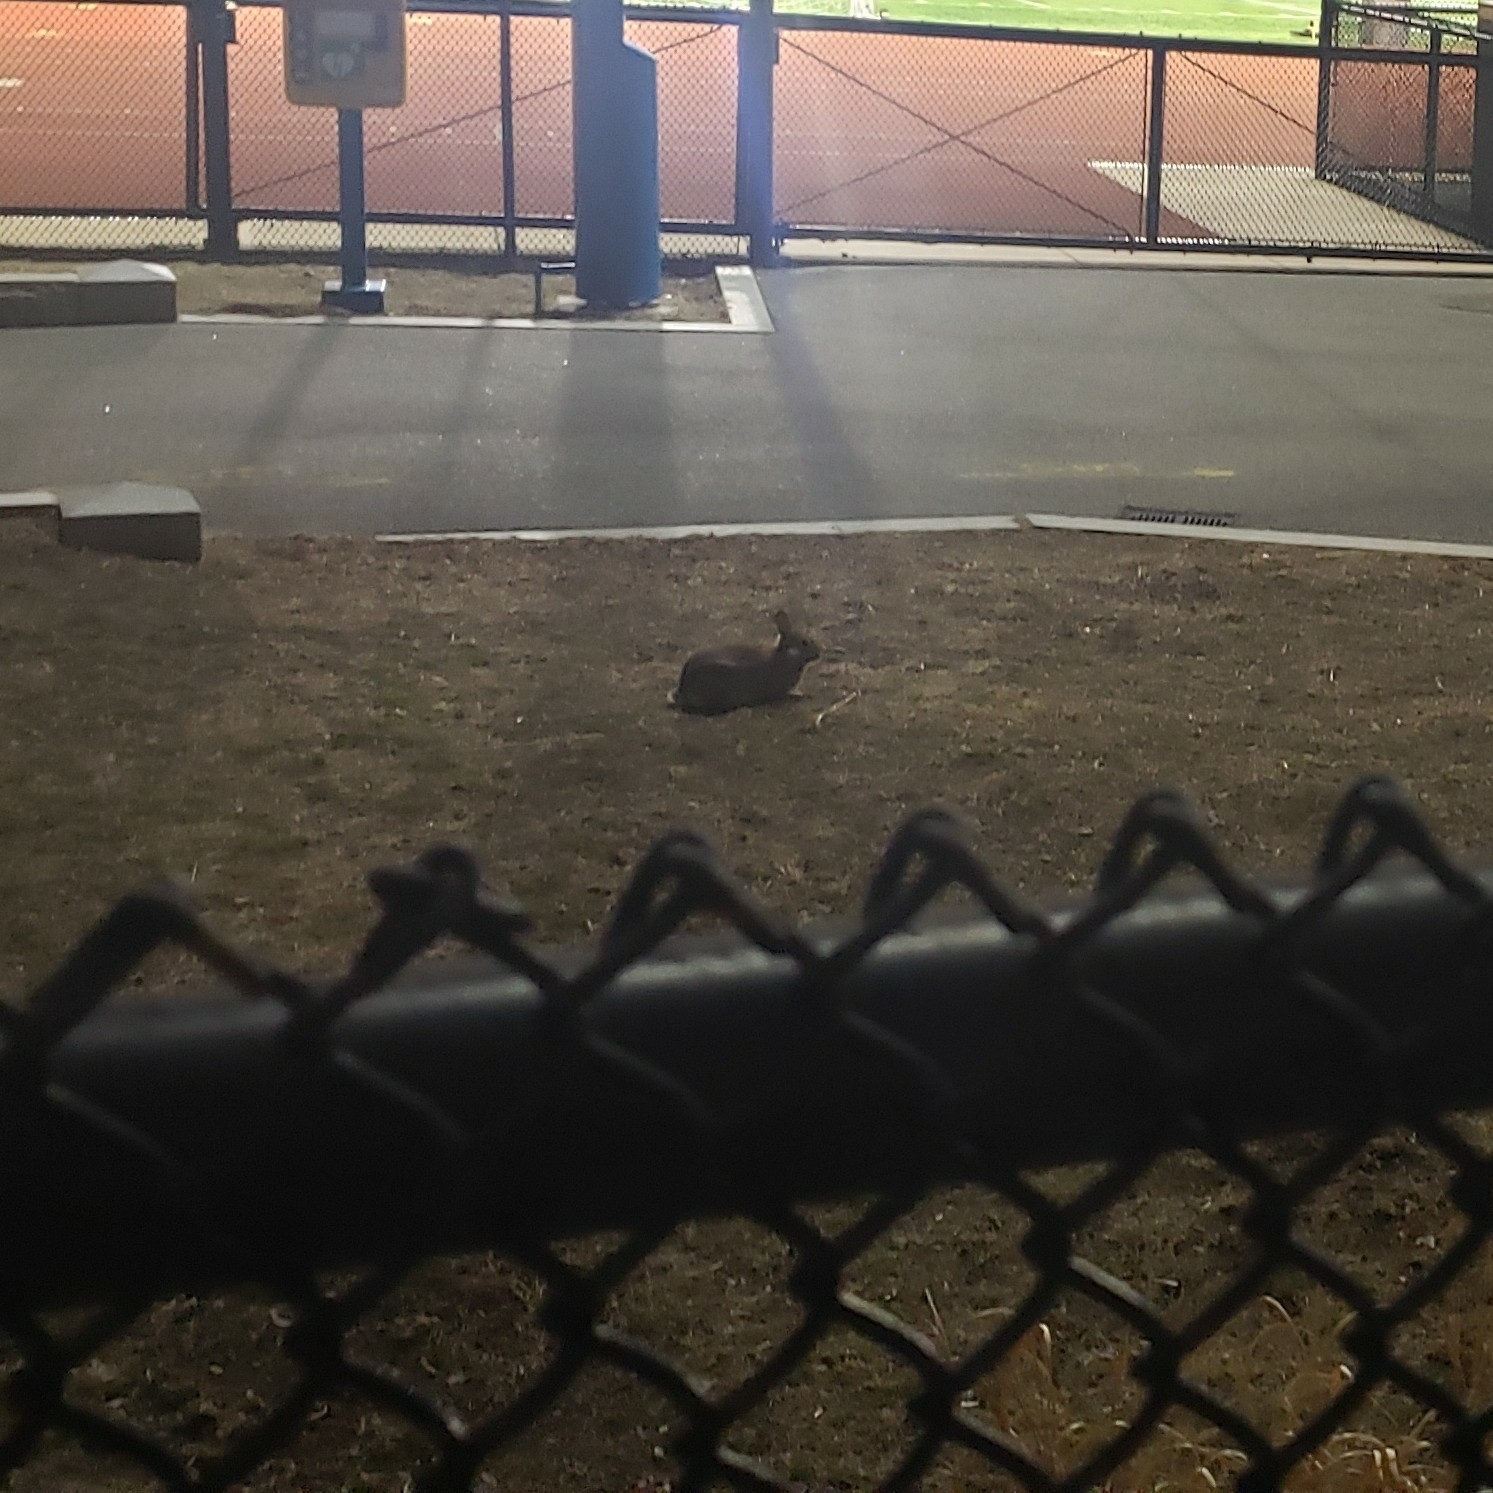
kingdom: Animalia
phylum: Chordata
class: Mammalia
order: Lagomorpha
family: Leporidae
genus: Sylvilagus
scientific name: Sylvilagus floridanus
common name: Eastern cottontail
